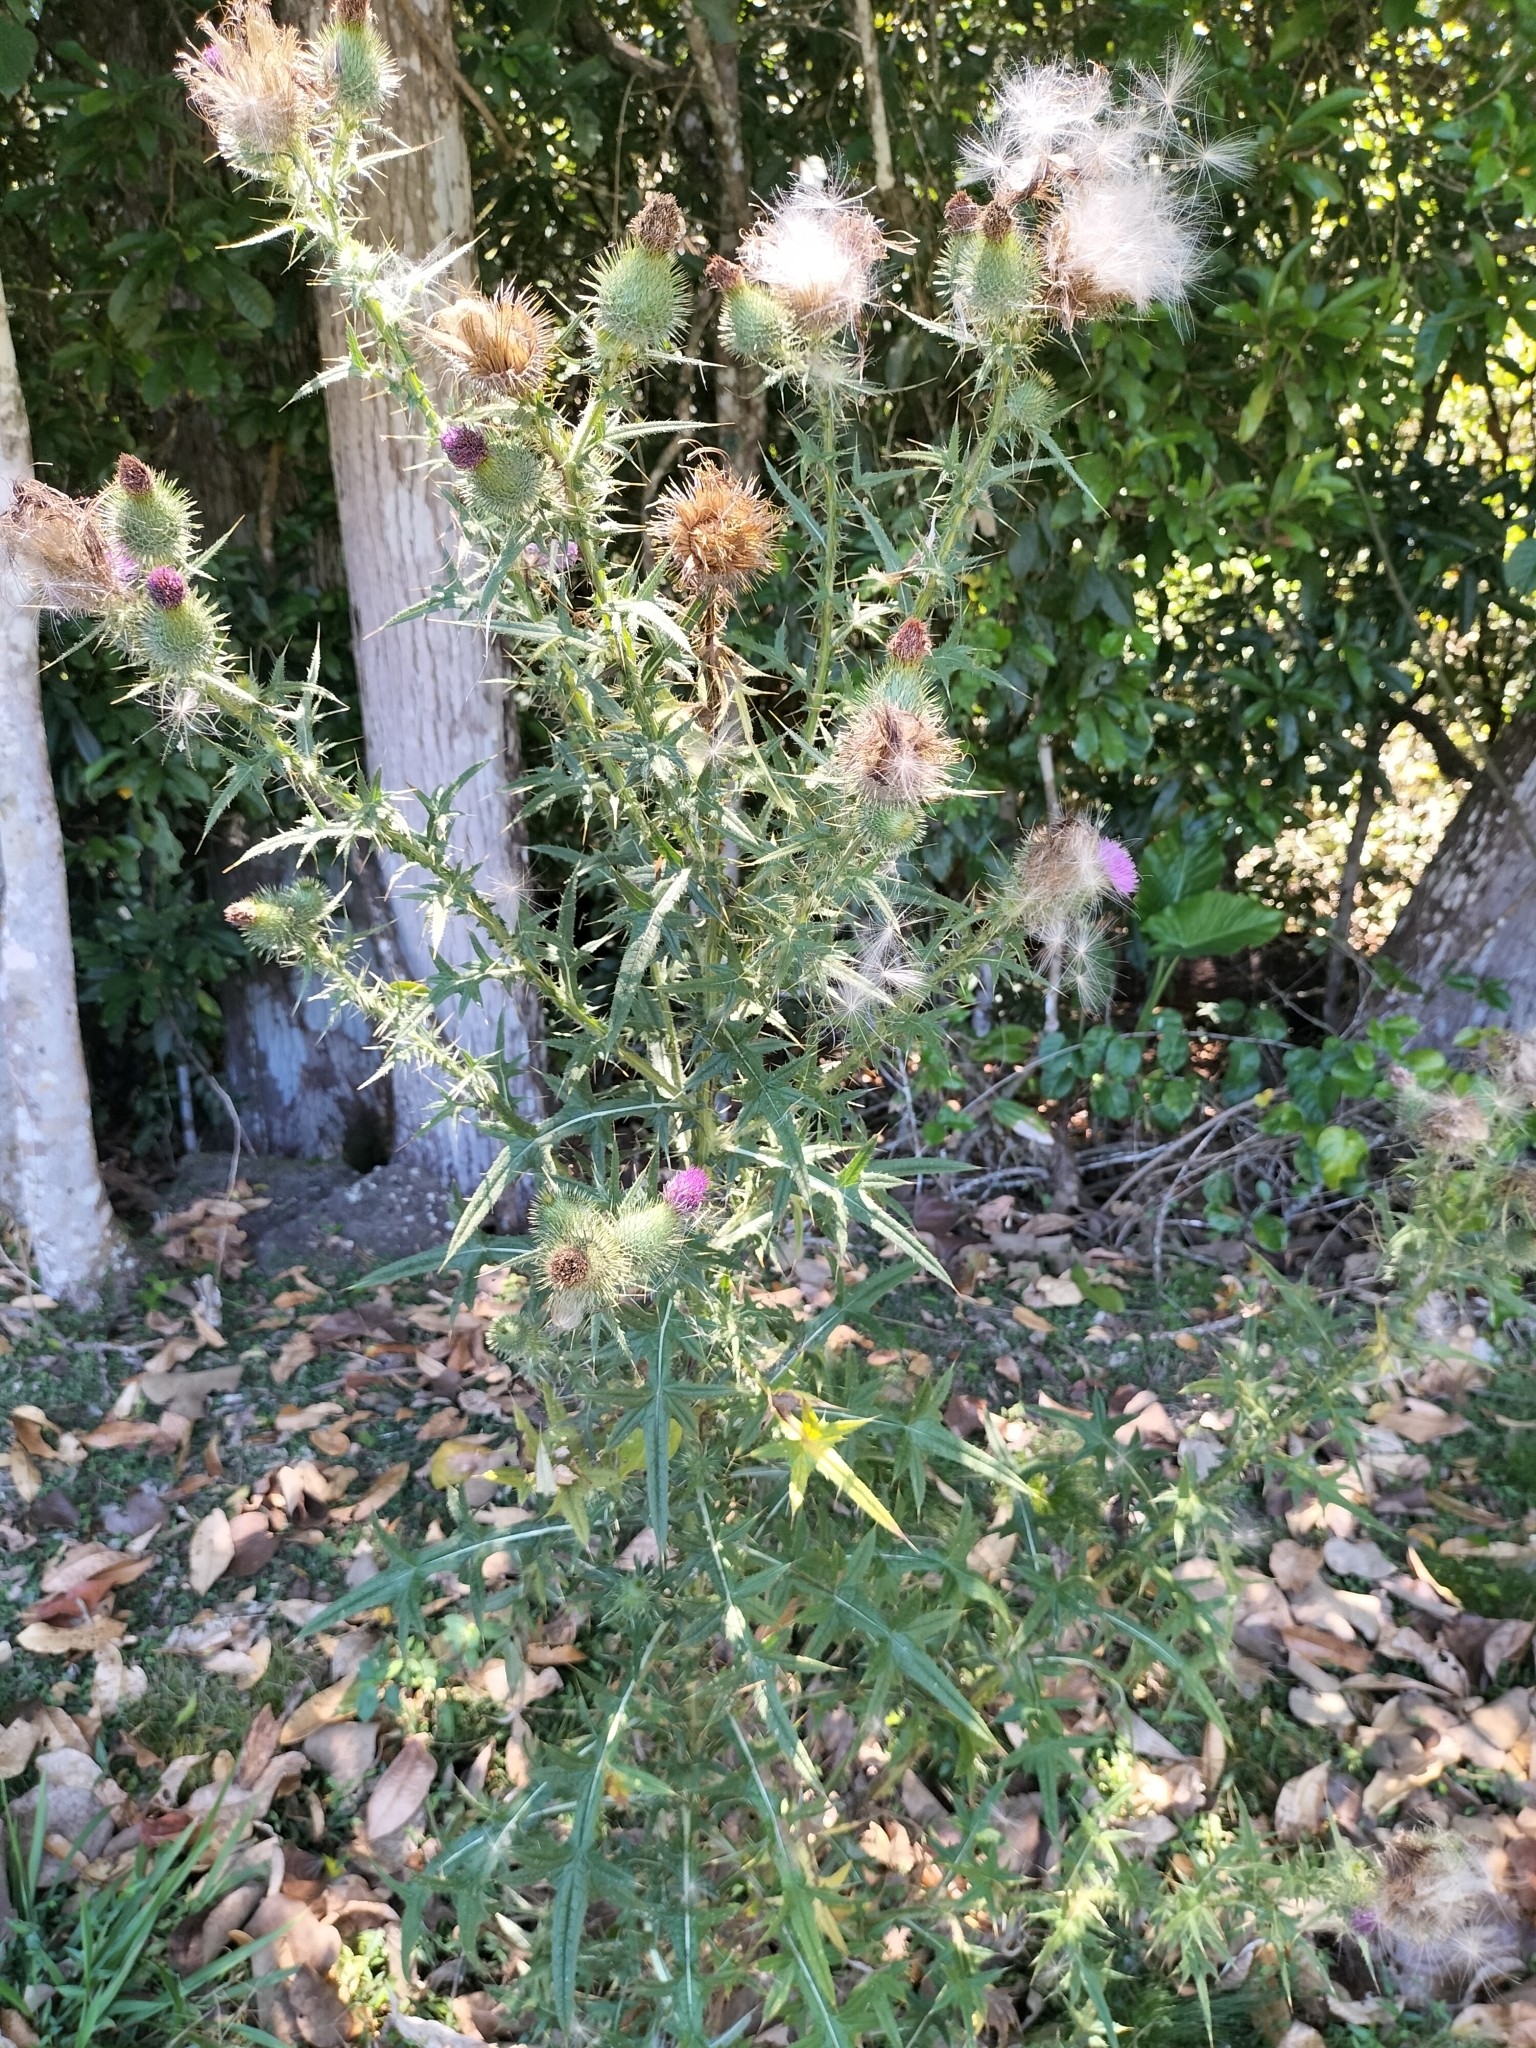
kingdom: Plantae
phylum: Tracheophyta
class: Magnoliopsida
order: Asterales
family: Asteraceae
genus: Cirsium
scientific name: Cirsium vulgare
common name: Bull thistle
